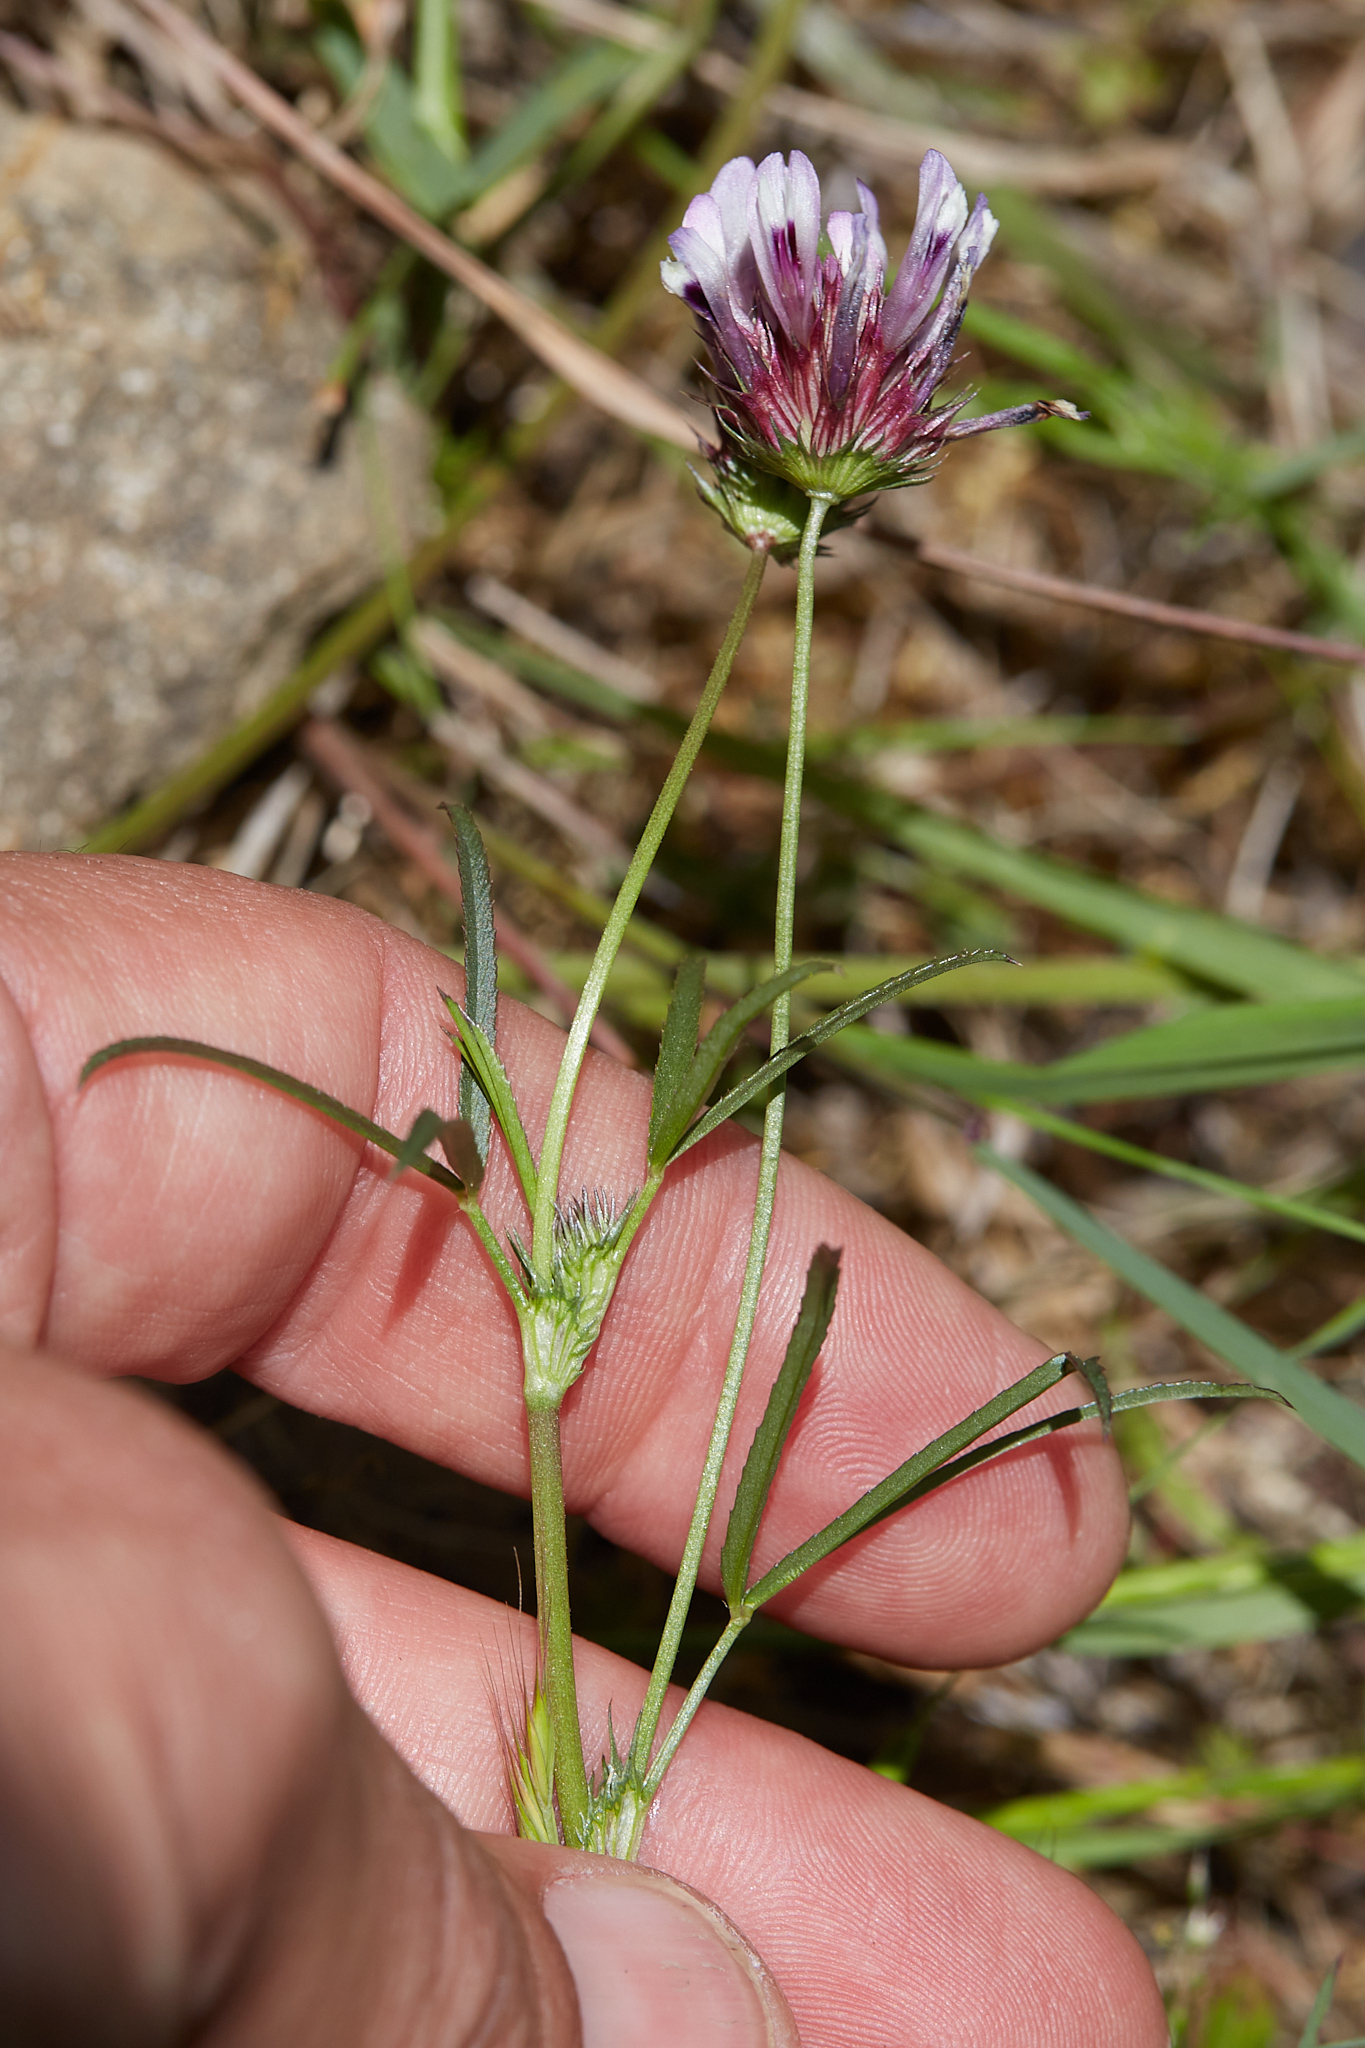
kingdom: Plantae
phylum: Tracheophyta
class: Magnoliopsida
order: Fabales
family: Fabaceae
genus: Trifolium
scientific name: Trifolium willdenovii
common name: Tomcat clover
